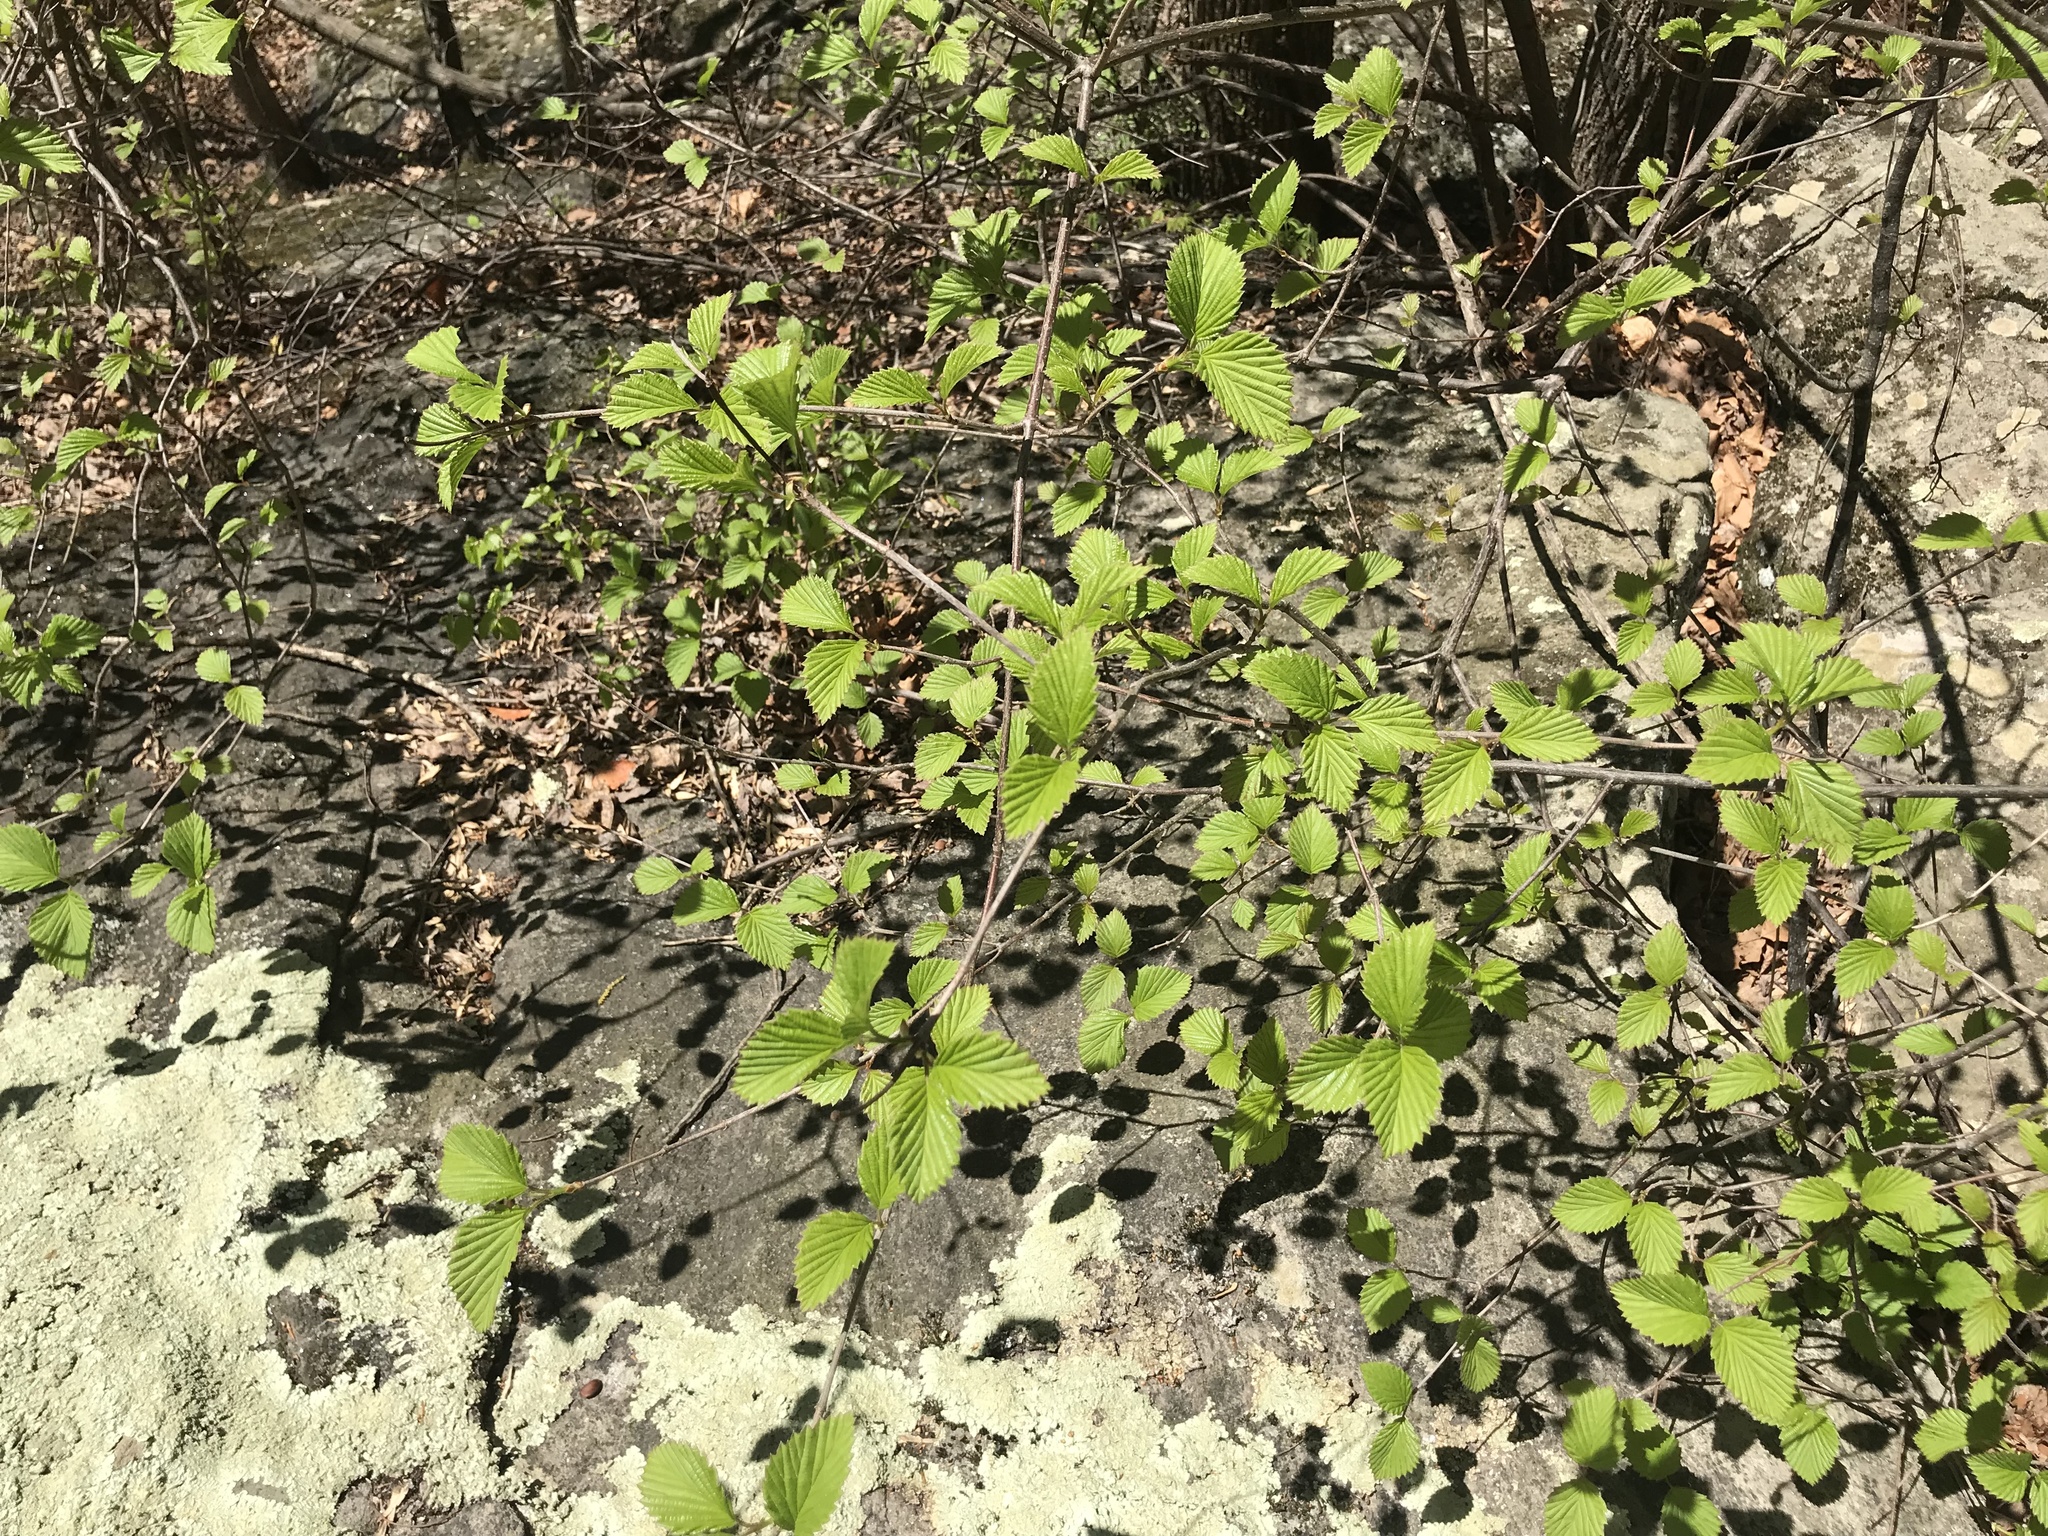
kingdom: Plantae
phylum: Tracheophyta
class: Magnoliopsida
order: Dipsacales
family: Viburnaceae
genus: Viburnum
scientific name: Viburnum dentatum
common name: Arrow-wood
